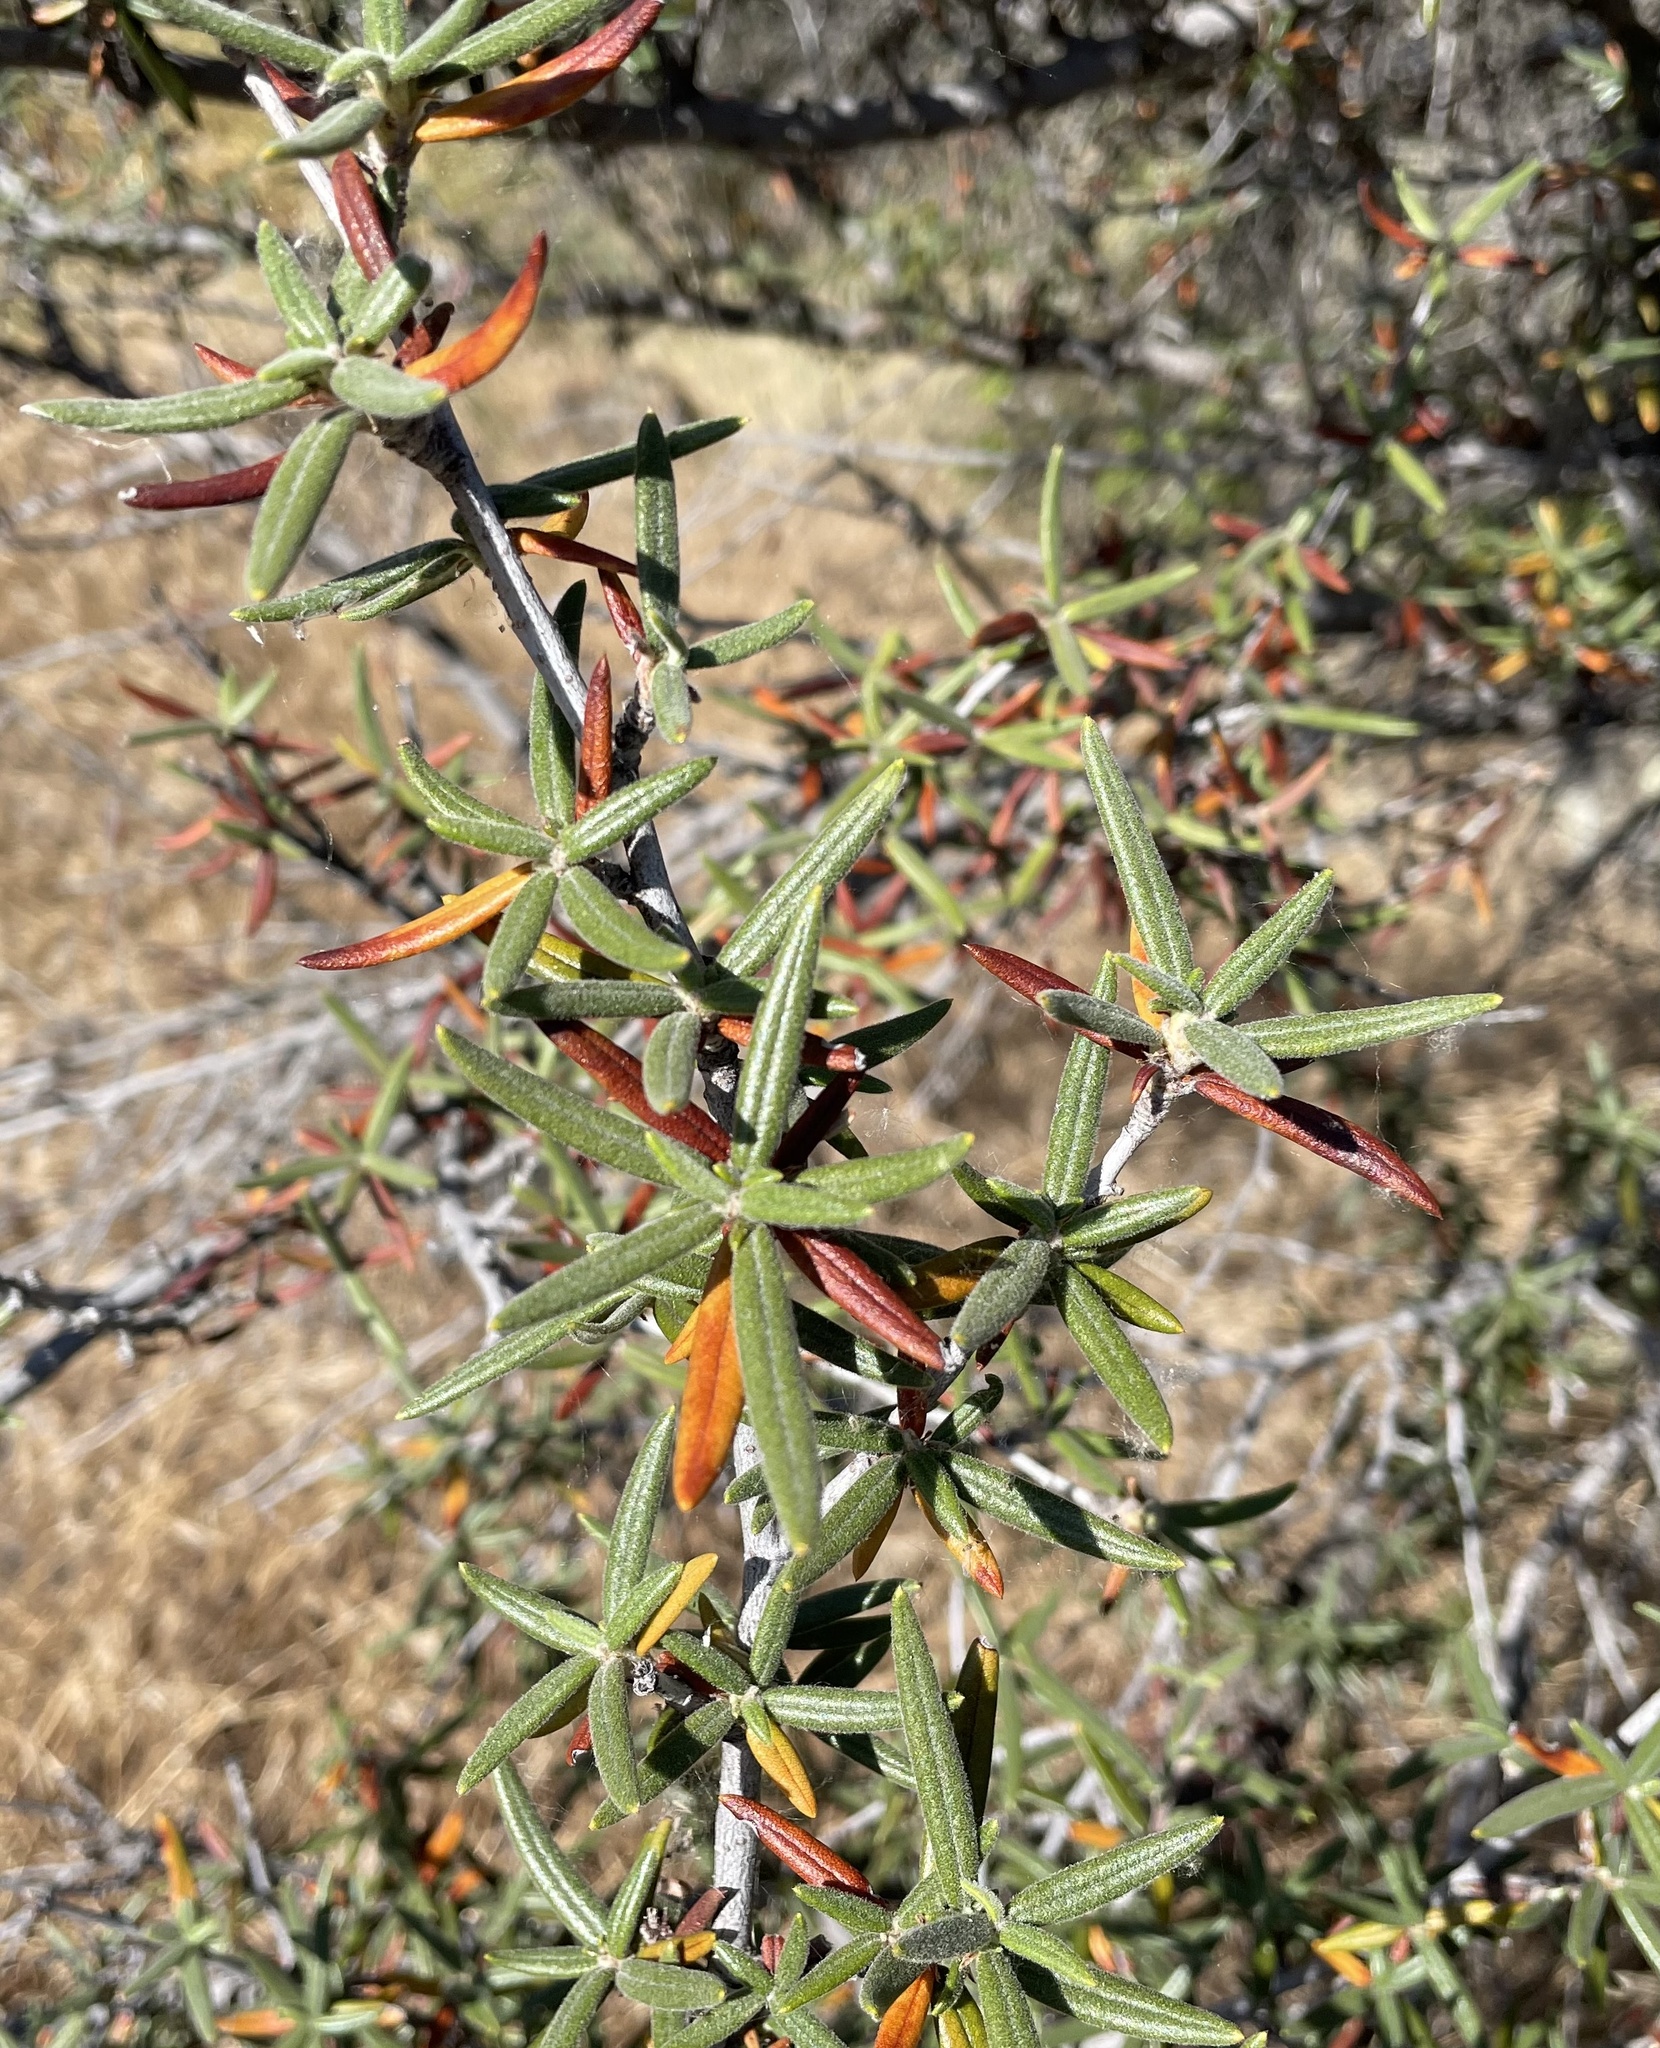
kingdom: Plantae
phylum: Tracheophyta
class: Magnoliopsida
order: Rosales
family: Rosaceae
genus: Cercocarpus
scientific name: Cercocarpus ledifolius
